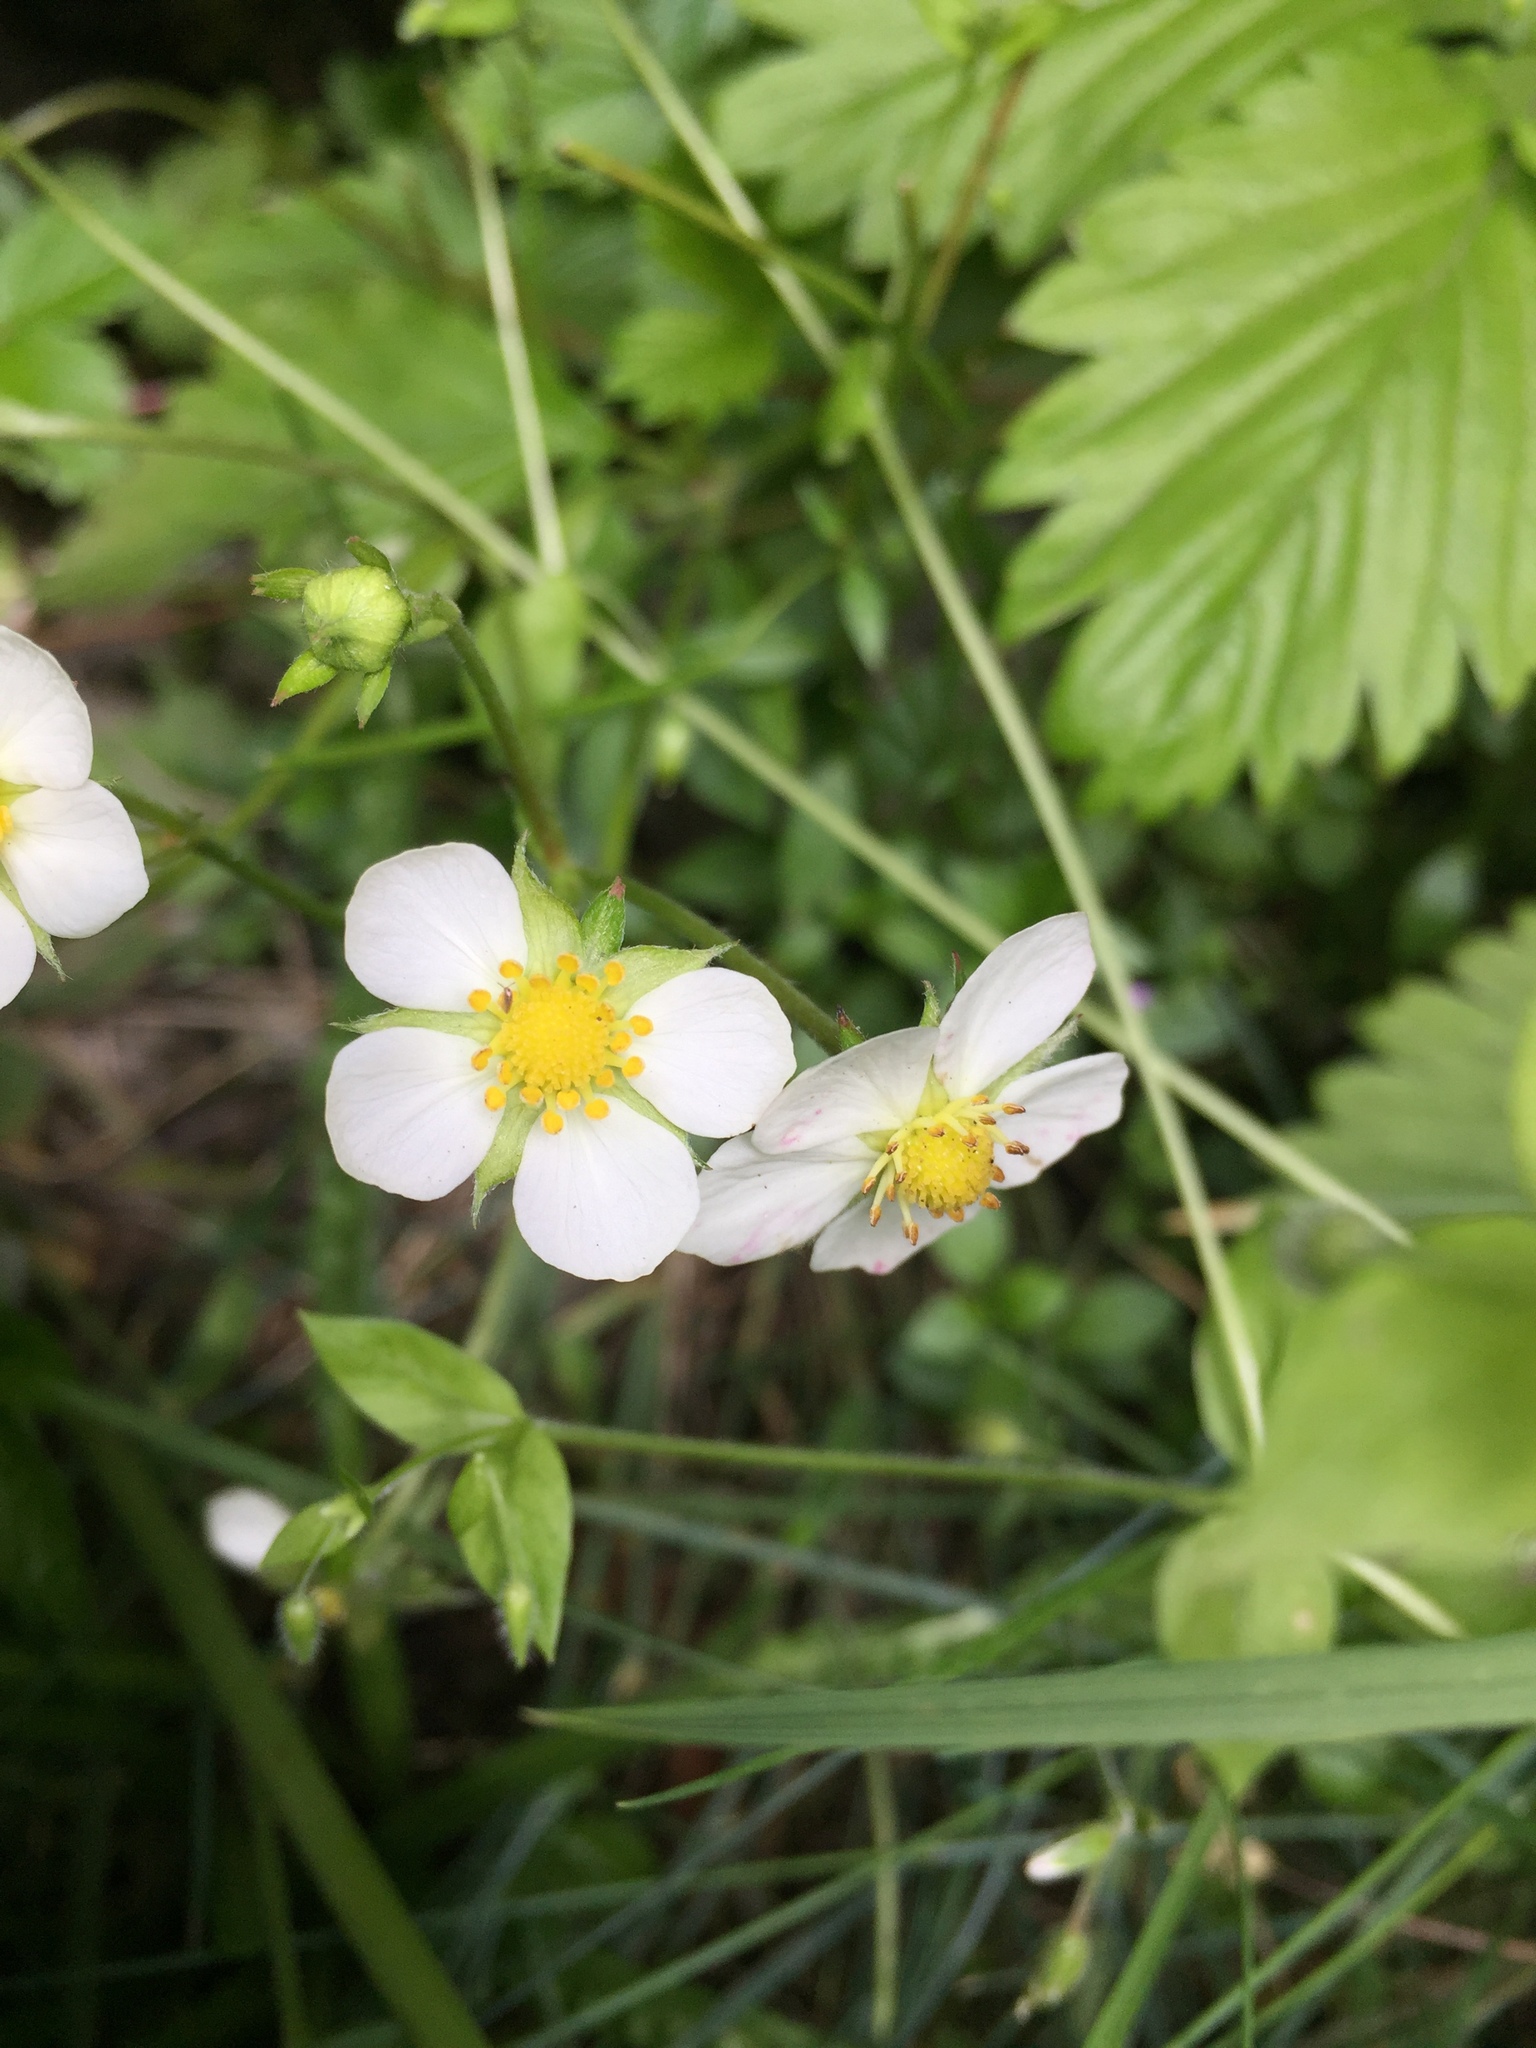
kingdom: Plantae
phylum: Tracheophyta
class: Magnoliopsida
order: Rosales
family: Rosaceae
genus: Fragaria
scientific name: Fragaria vesca
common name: Wild strawberry
